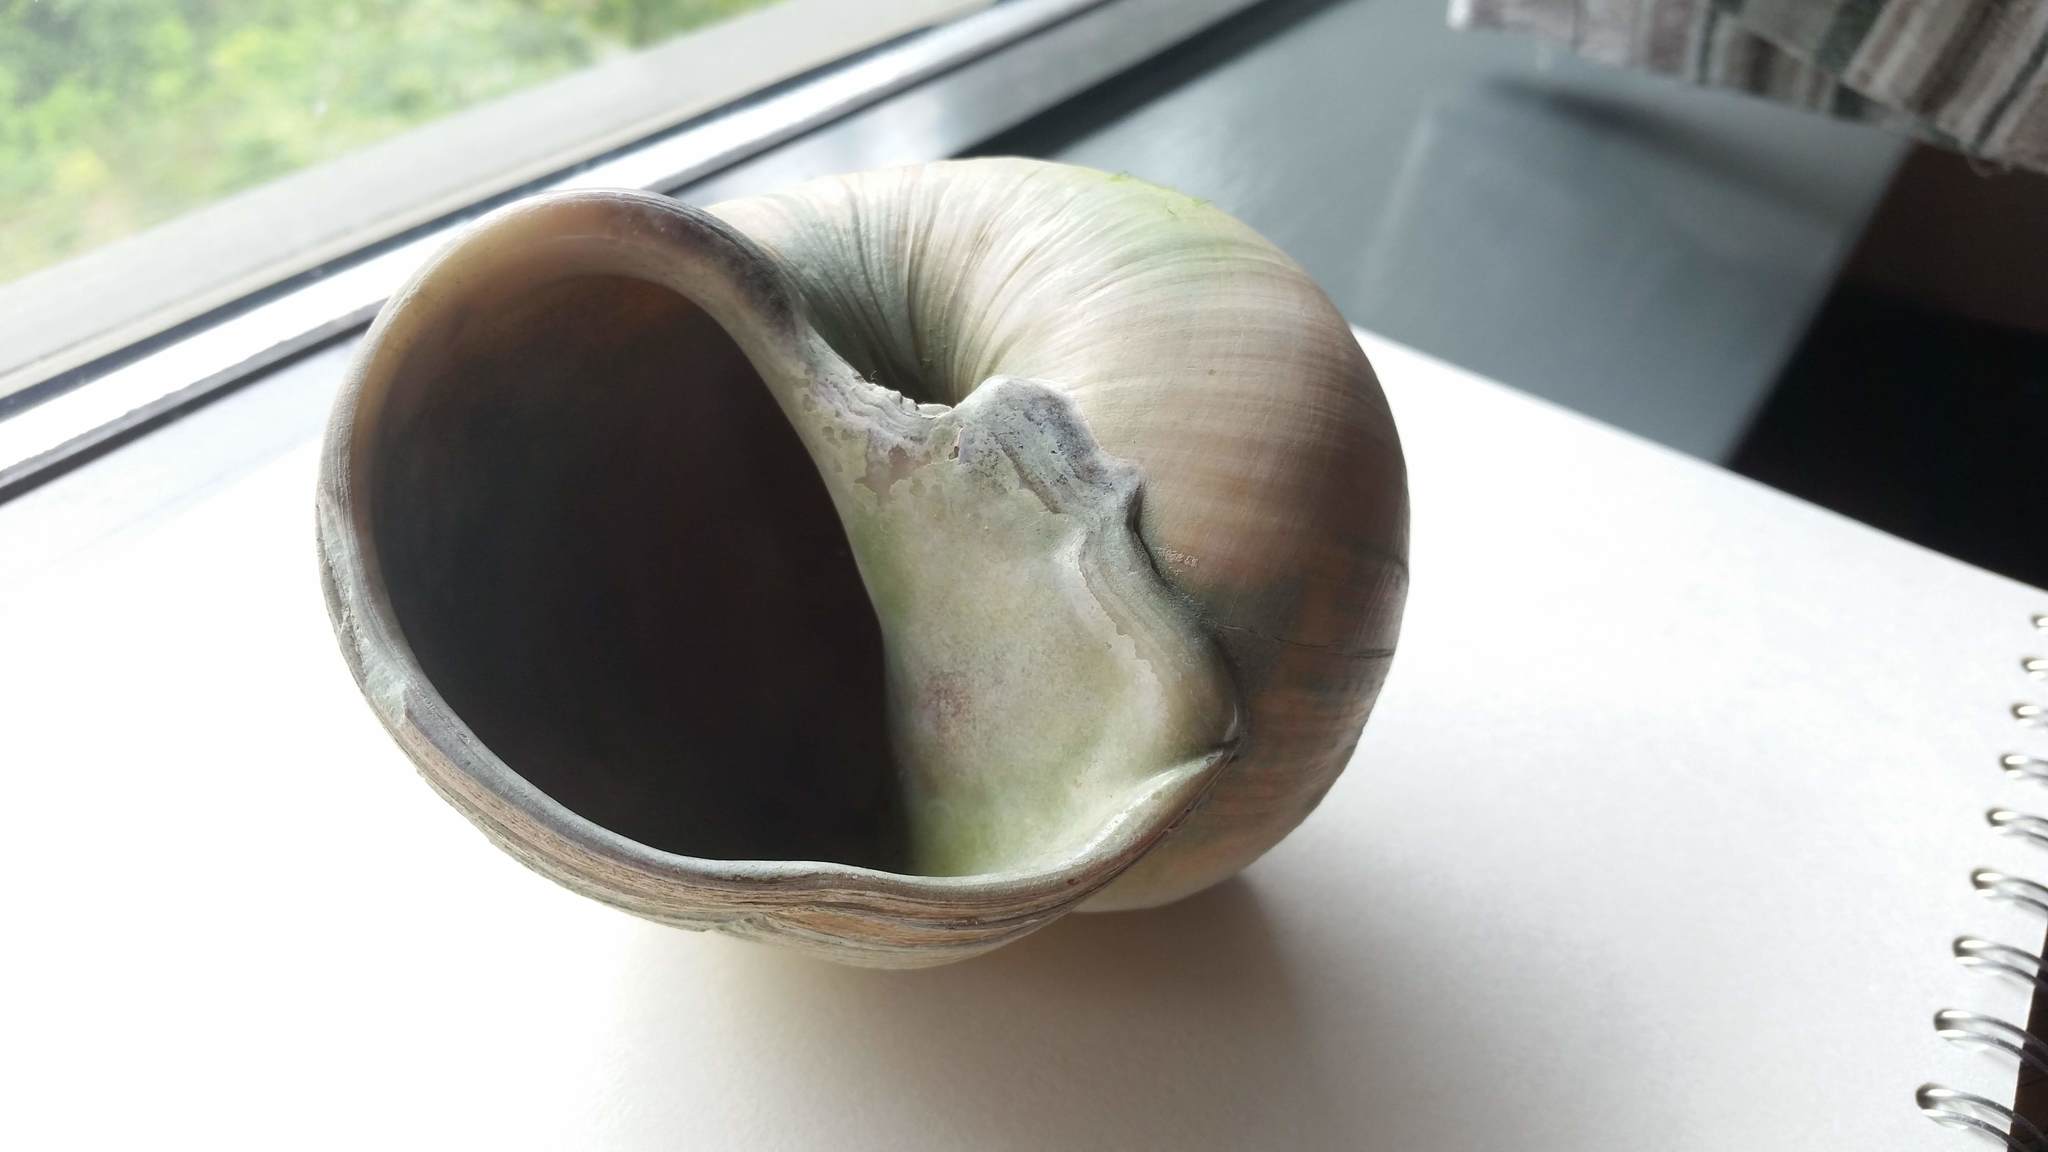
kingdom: Animalia
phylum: Mollusca
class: Gastropoda
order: Littorinimorpha
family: Naticidae
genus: Neverita
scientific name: Neverita lewisii
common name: Lewis' moonsnail
